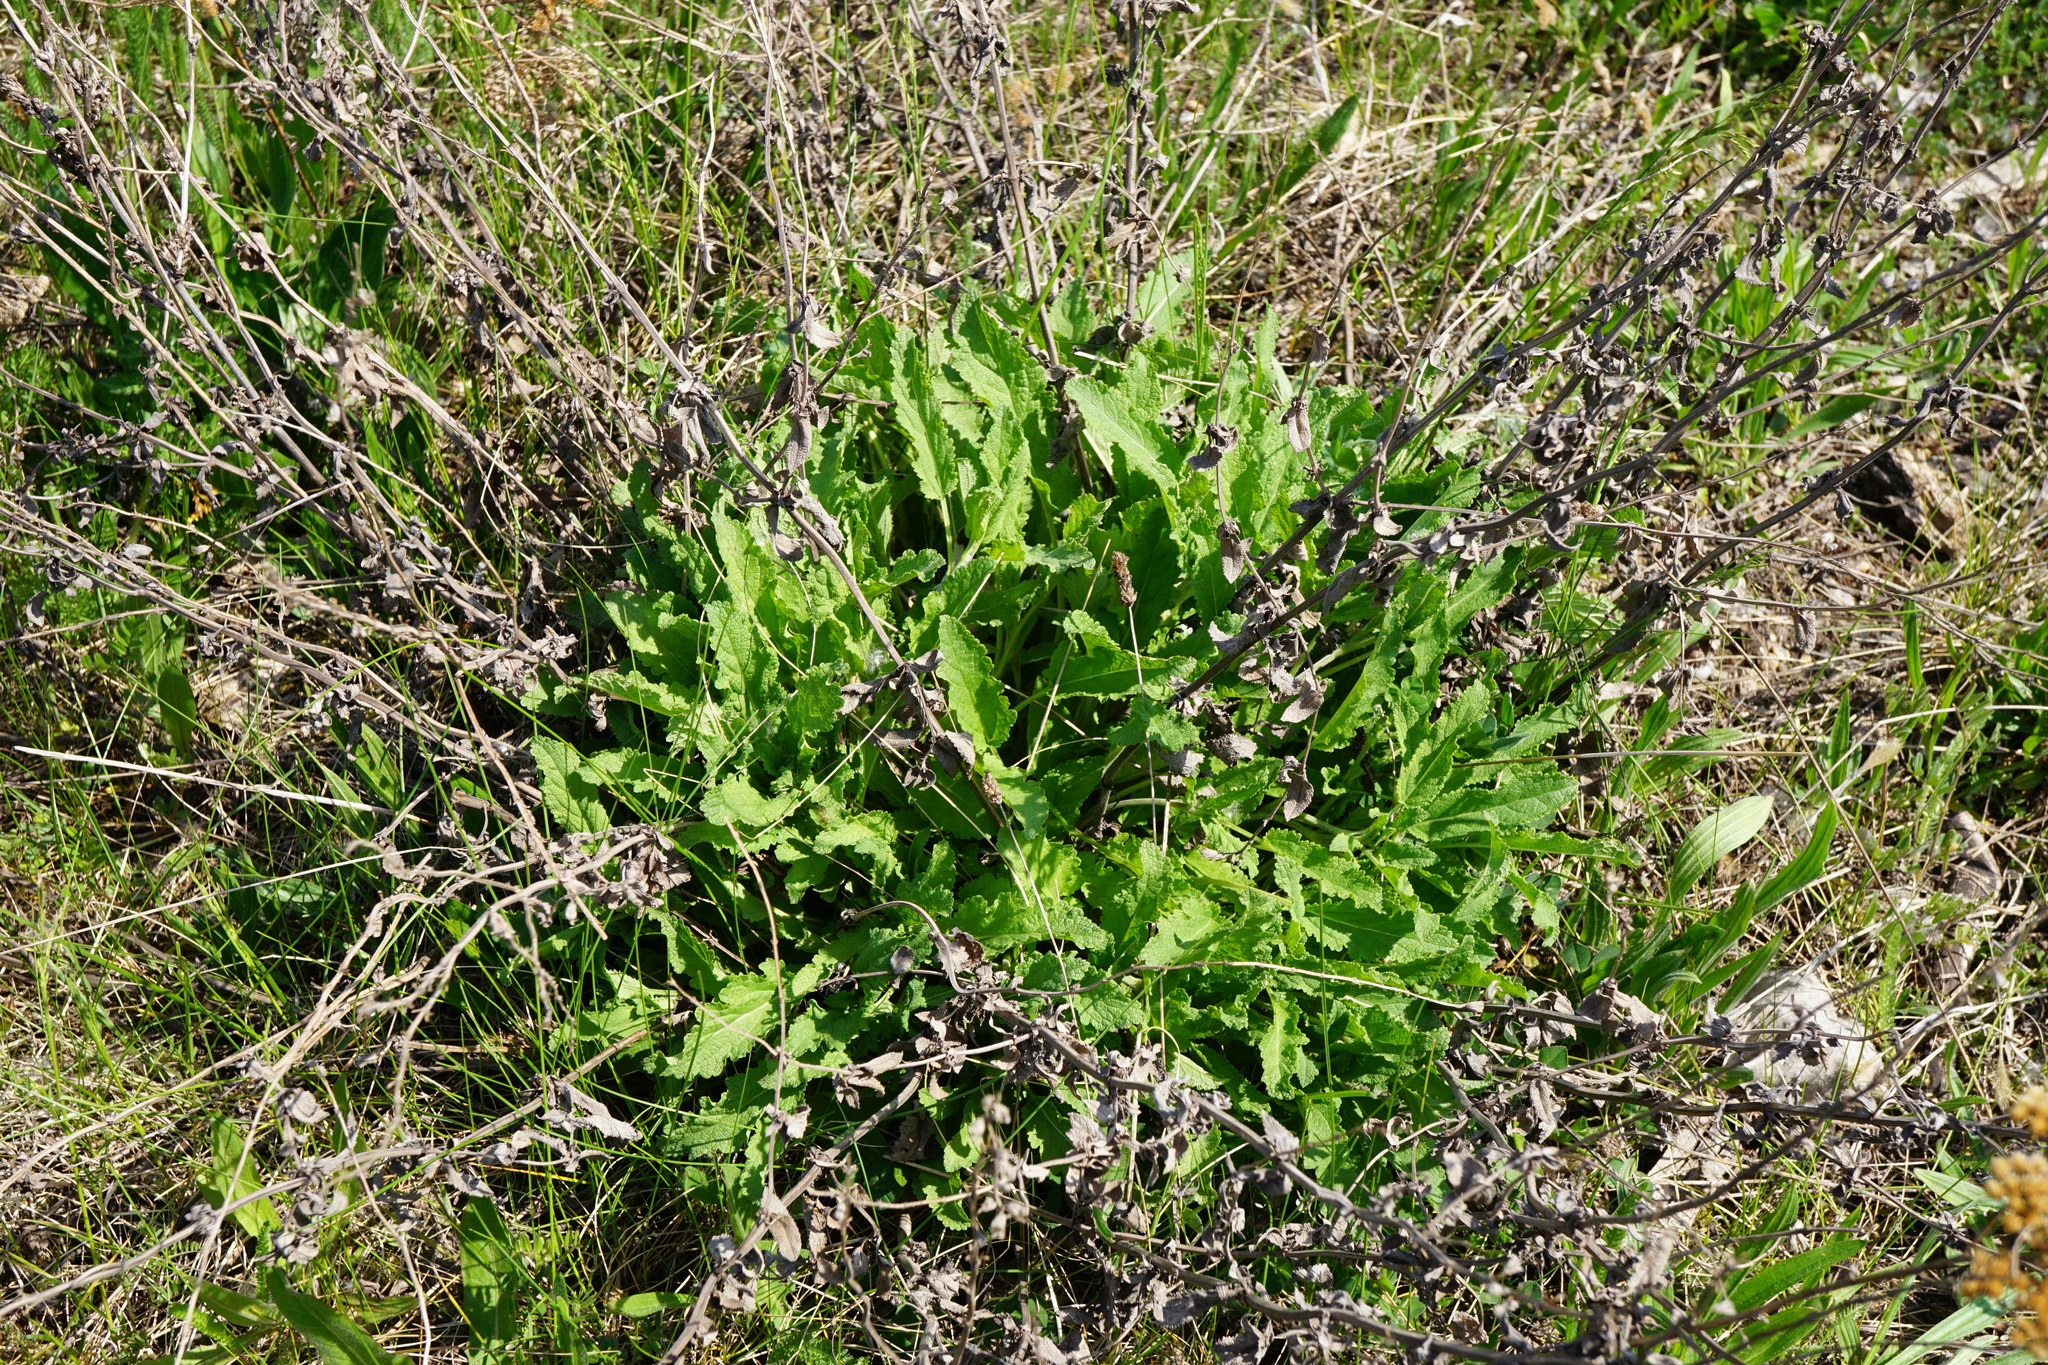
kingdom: Plantae
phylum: Tracheophyta
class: Magnoliopsida
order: Lamiales
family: Lamiaceae
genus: Salvia
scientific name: Salvia nemorosa
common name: Balkan clary
